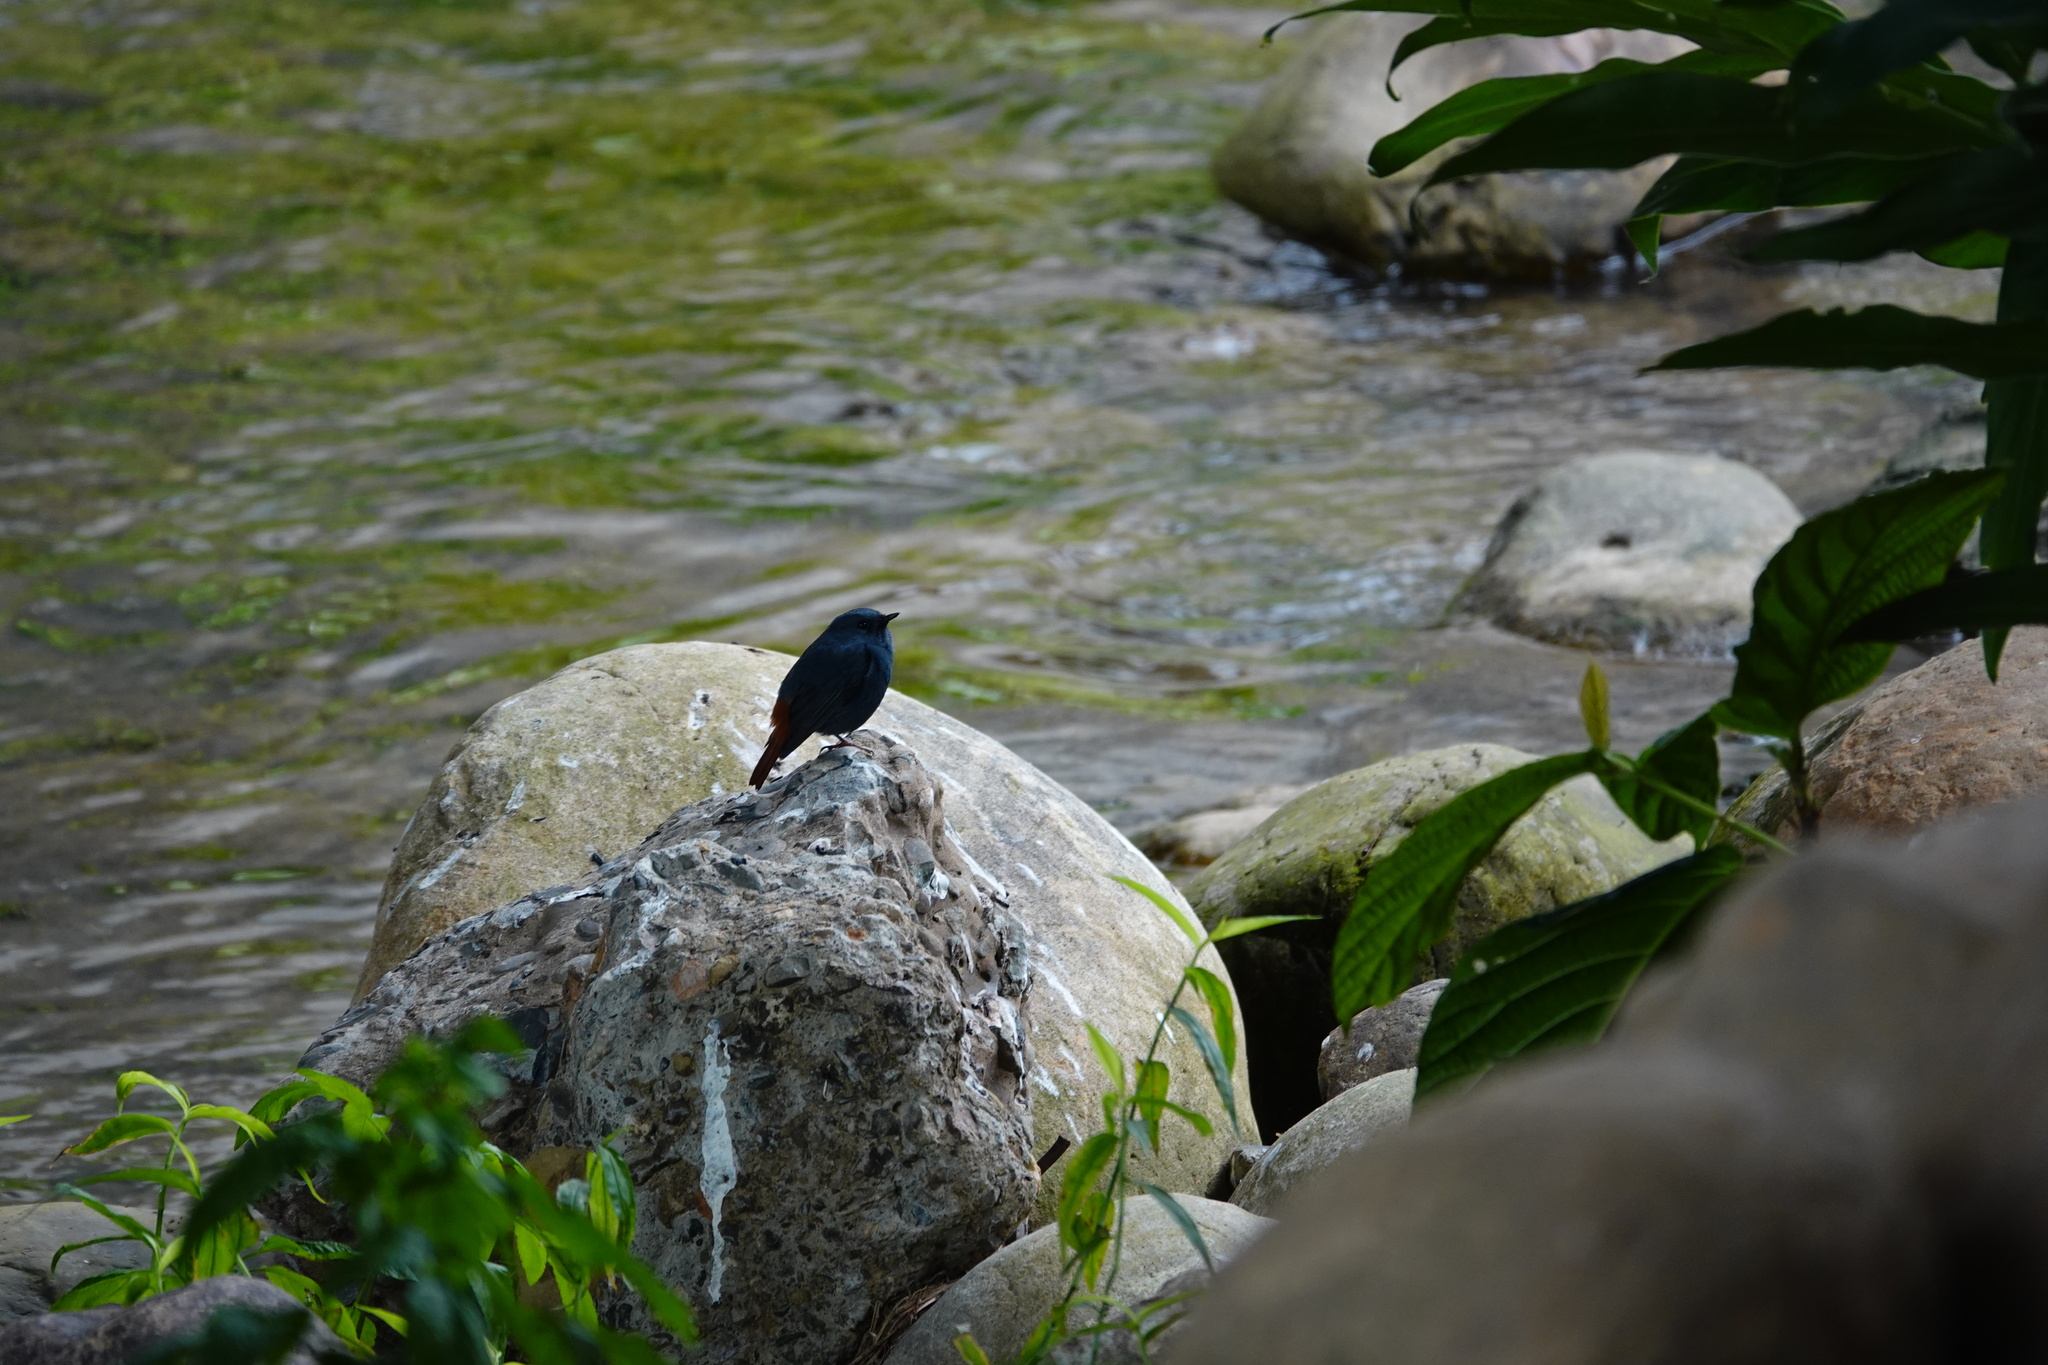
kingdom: Animalia
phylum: Chordata
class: Aves
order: Passeriformes
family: Muscicapidae
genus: Phoenicurus
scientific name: Phoenicurus fuliginosus
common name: Plumbeous water redstart
